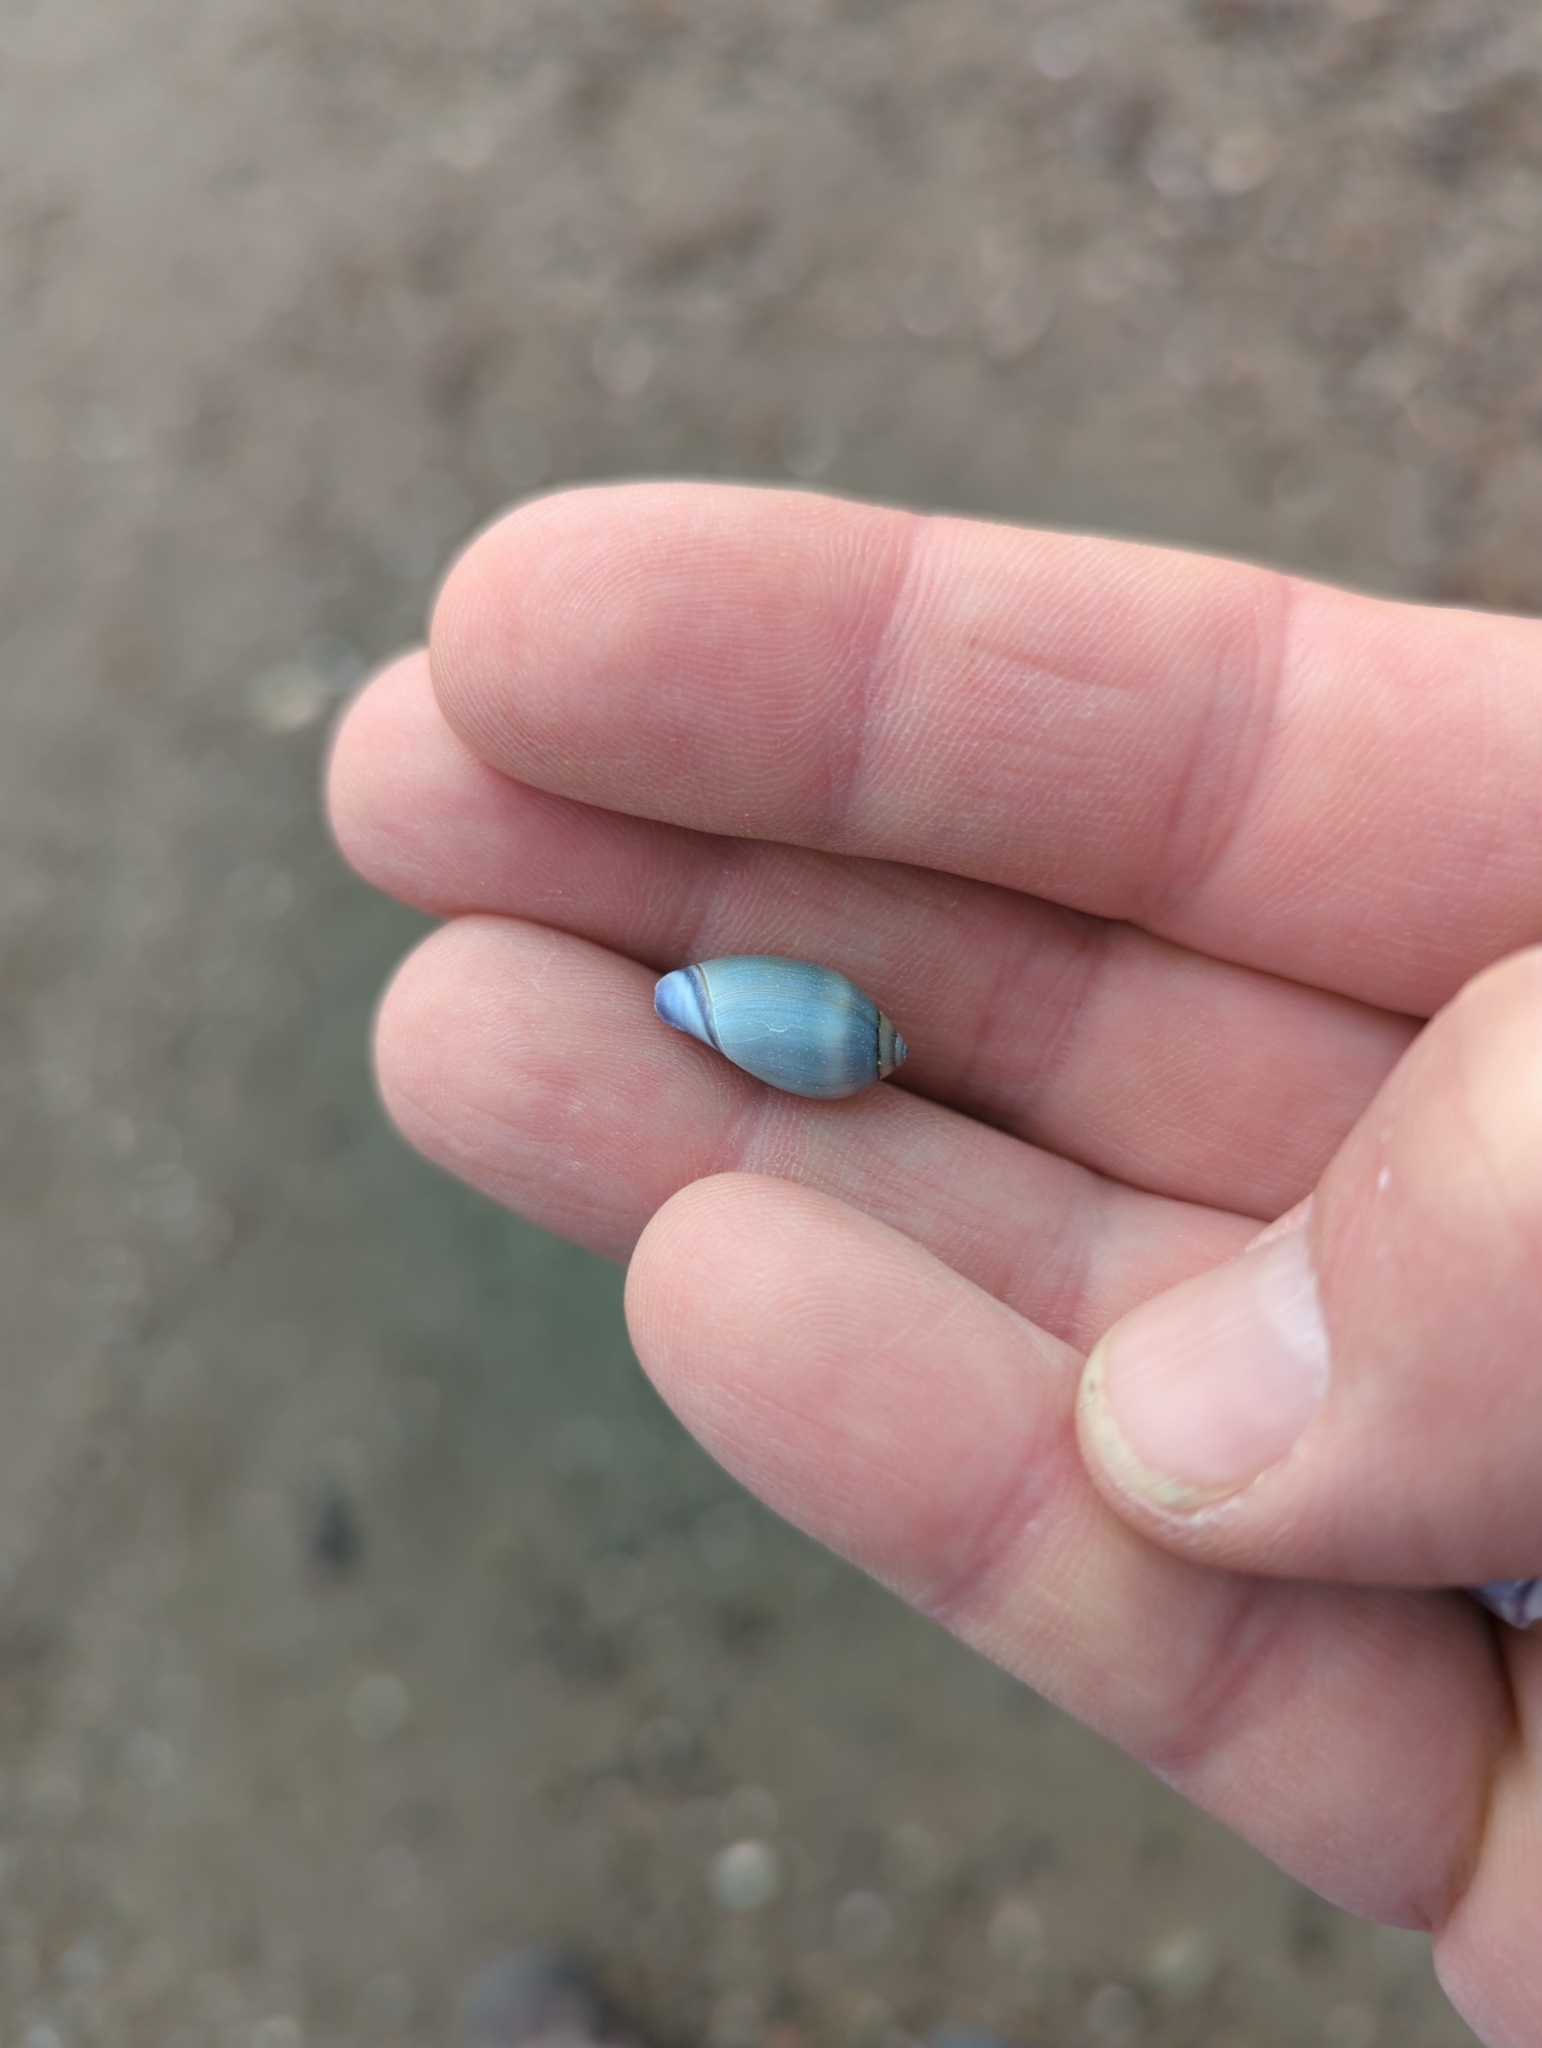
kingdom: Animalia
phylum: Mollusca
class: Gastropoda
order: Neogastropoda
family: Olividae
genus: Callianax
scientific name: Callianax biplicata
